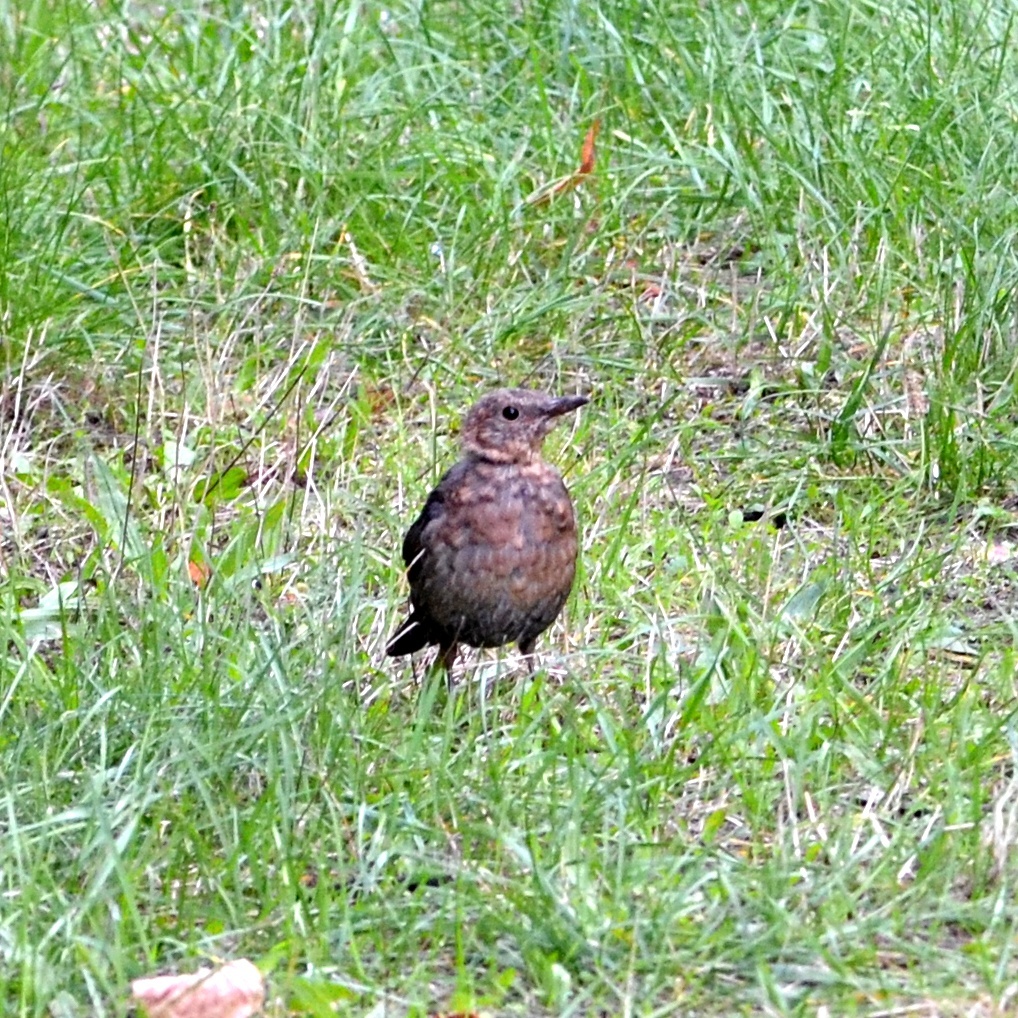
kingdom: Animalia
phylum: Chordata
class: Aves
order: Passeriformes
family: Turdidae
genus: Turdus
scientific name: Turdus merula
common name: Common blackbird
